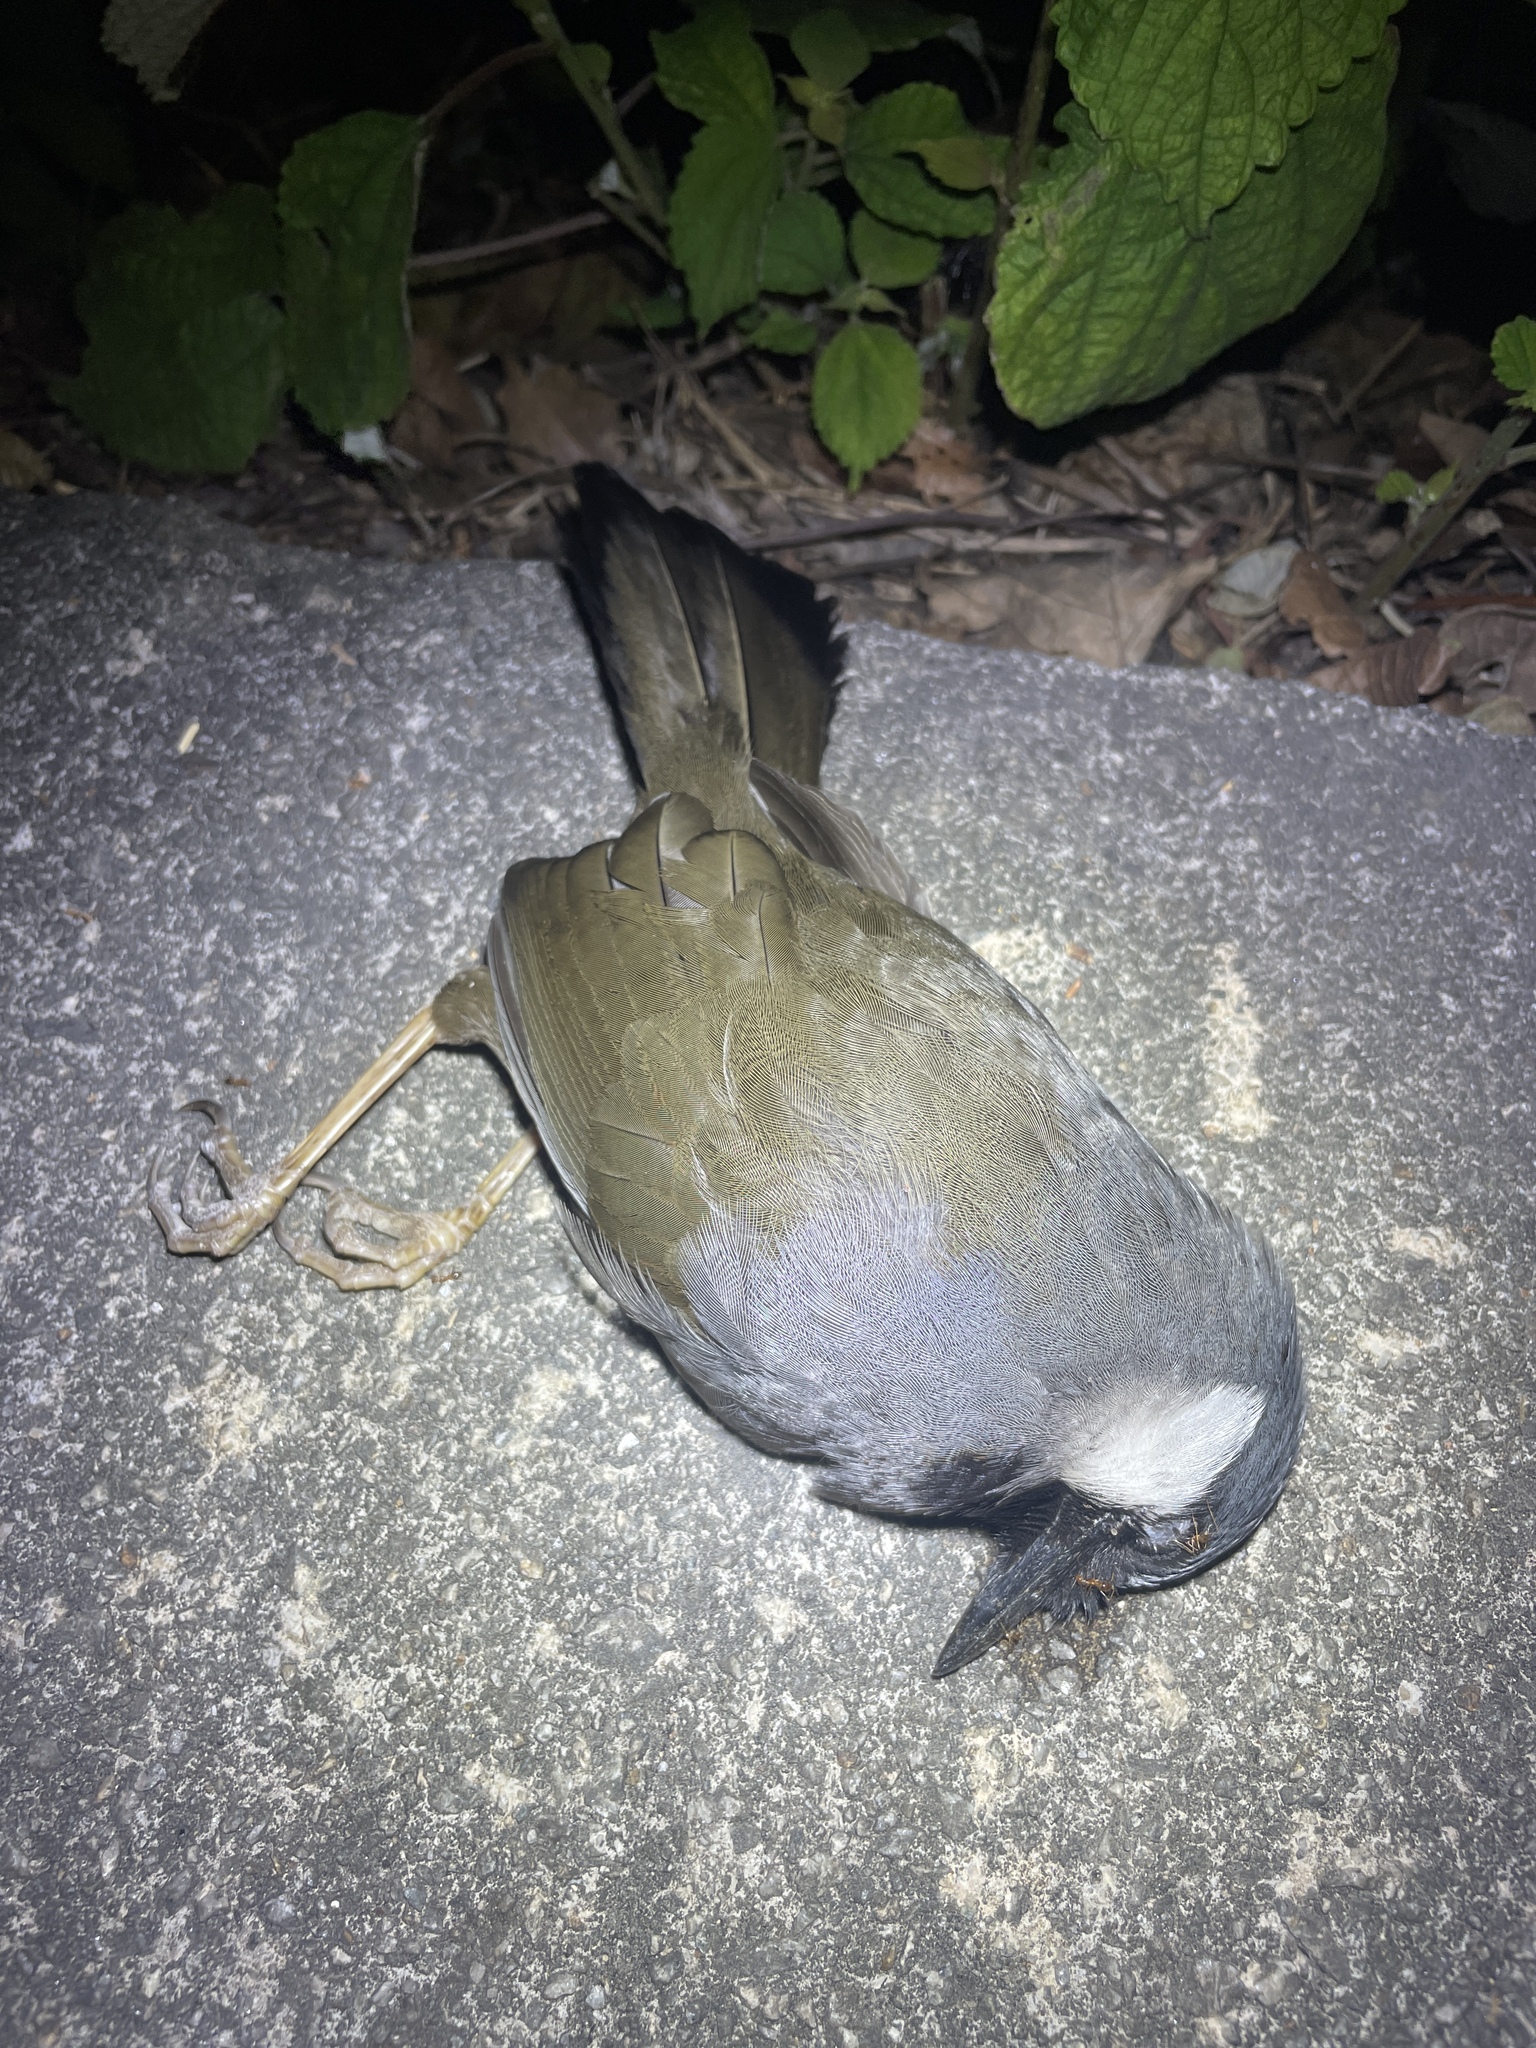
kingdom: Animalia
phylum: Chordata
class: Aves
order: Passeriformes
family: Leiothrichidae
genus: Garrulax
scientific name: Garrulax chinensis
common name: Black-throated laughingthrush
